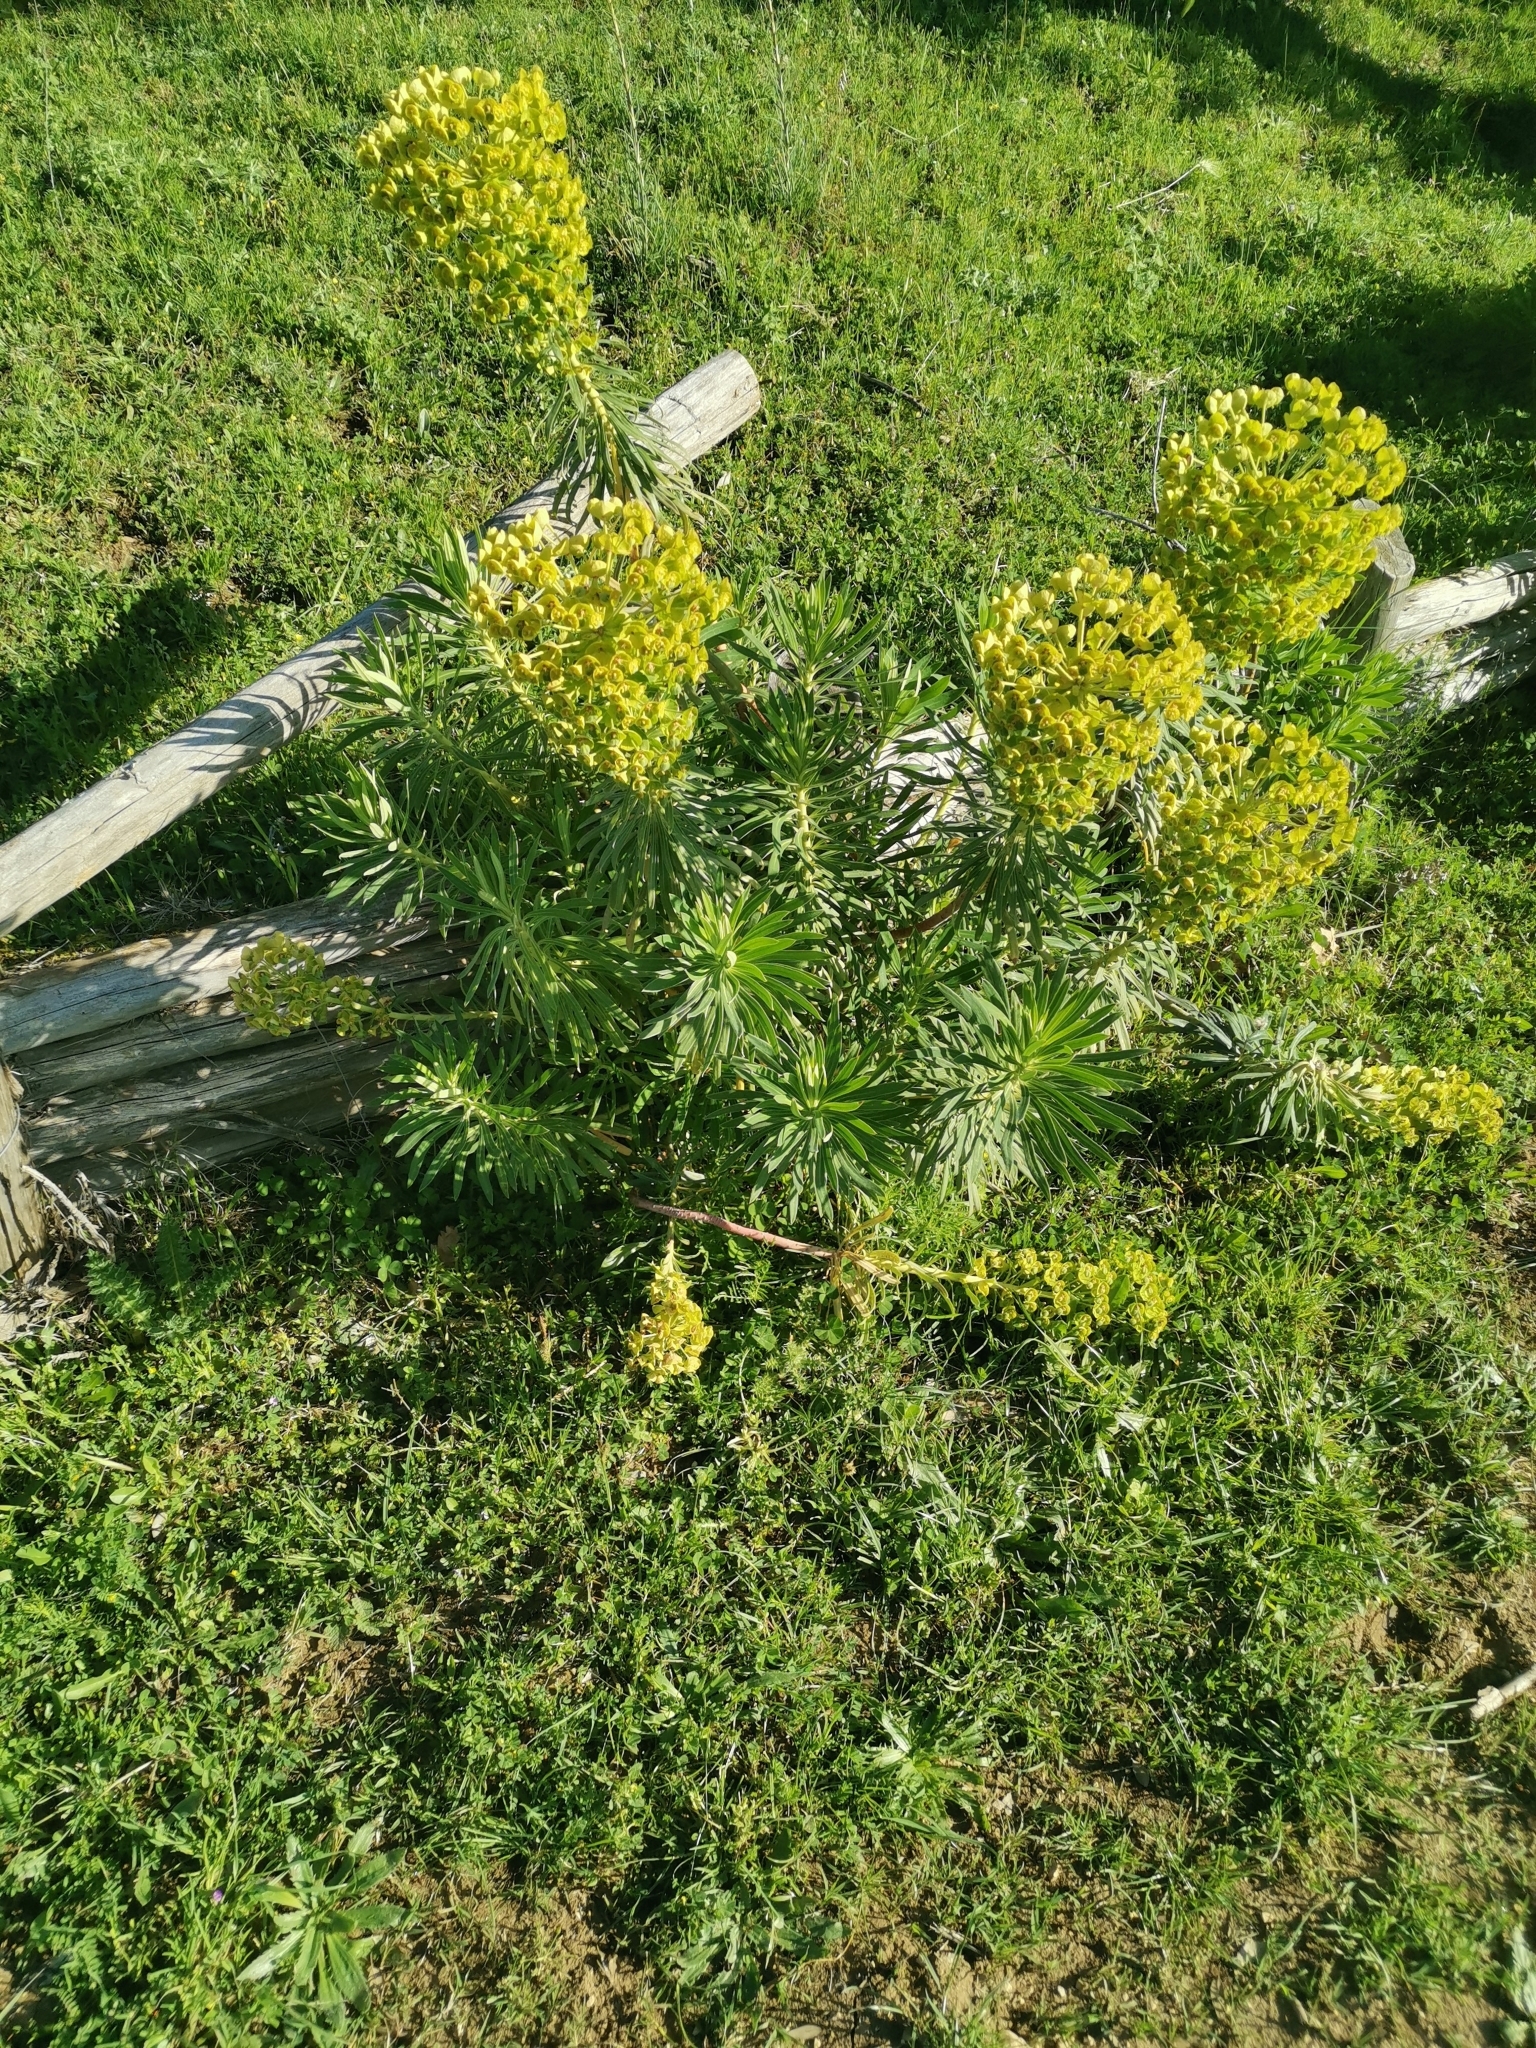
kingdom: Plantae
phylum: Tracheophyta
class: Magnoliopsida
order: Malpighiales
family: Euphorbiaceae
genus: Euphorbia
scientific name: Euphorbia characias
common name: Mediterranean spurge
